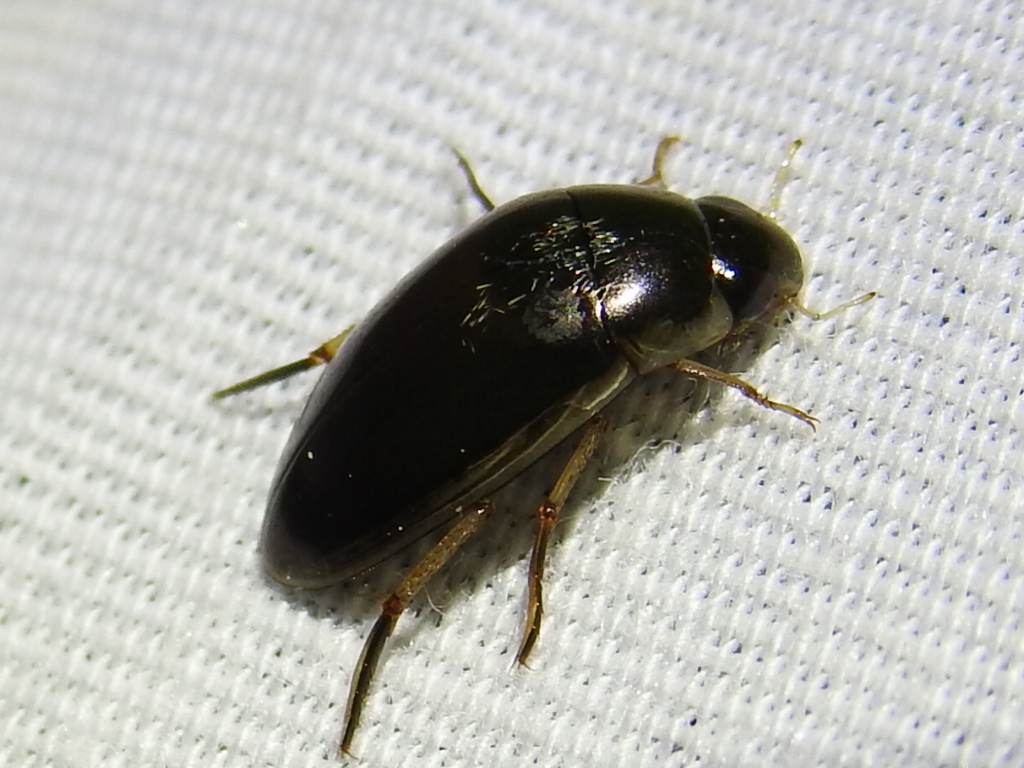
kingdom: Animalia
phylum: Arthropoda
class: Insecta
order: Coleoptera
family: Hydrophilidae
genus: Tropisternus
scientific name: Tropisternus lateralis
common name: Lateral-banded water scavenger beetle
